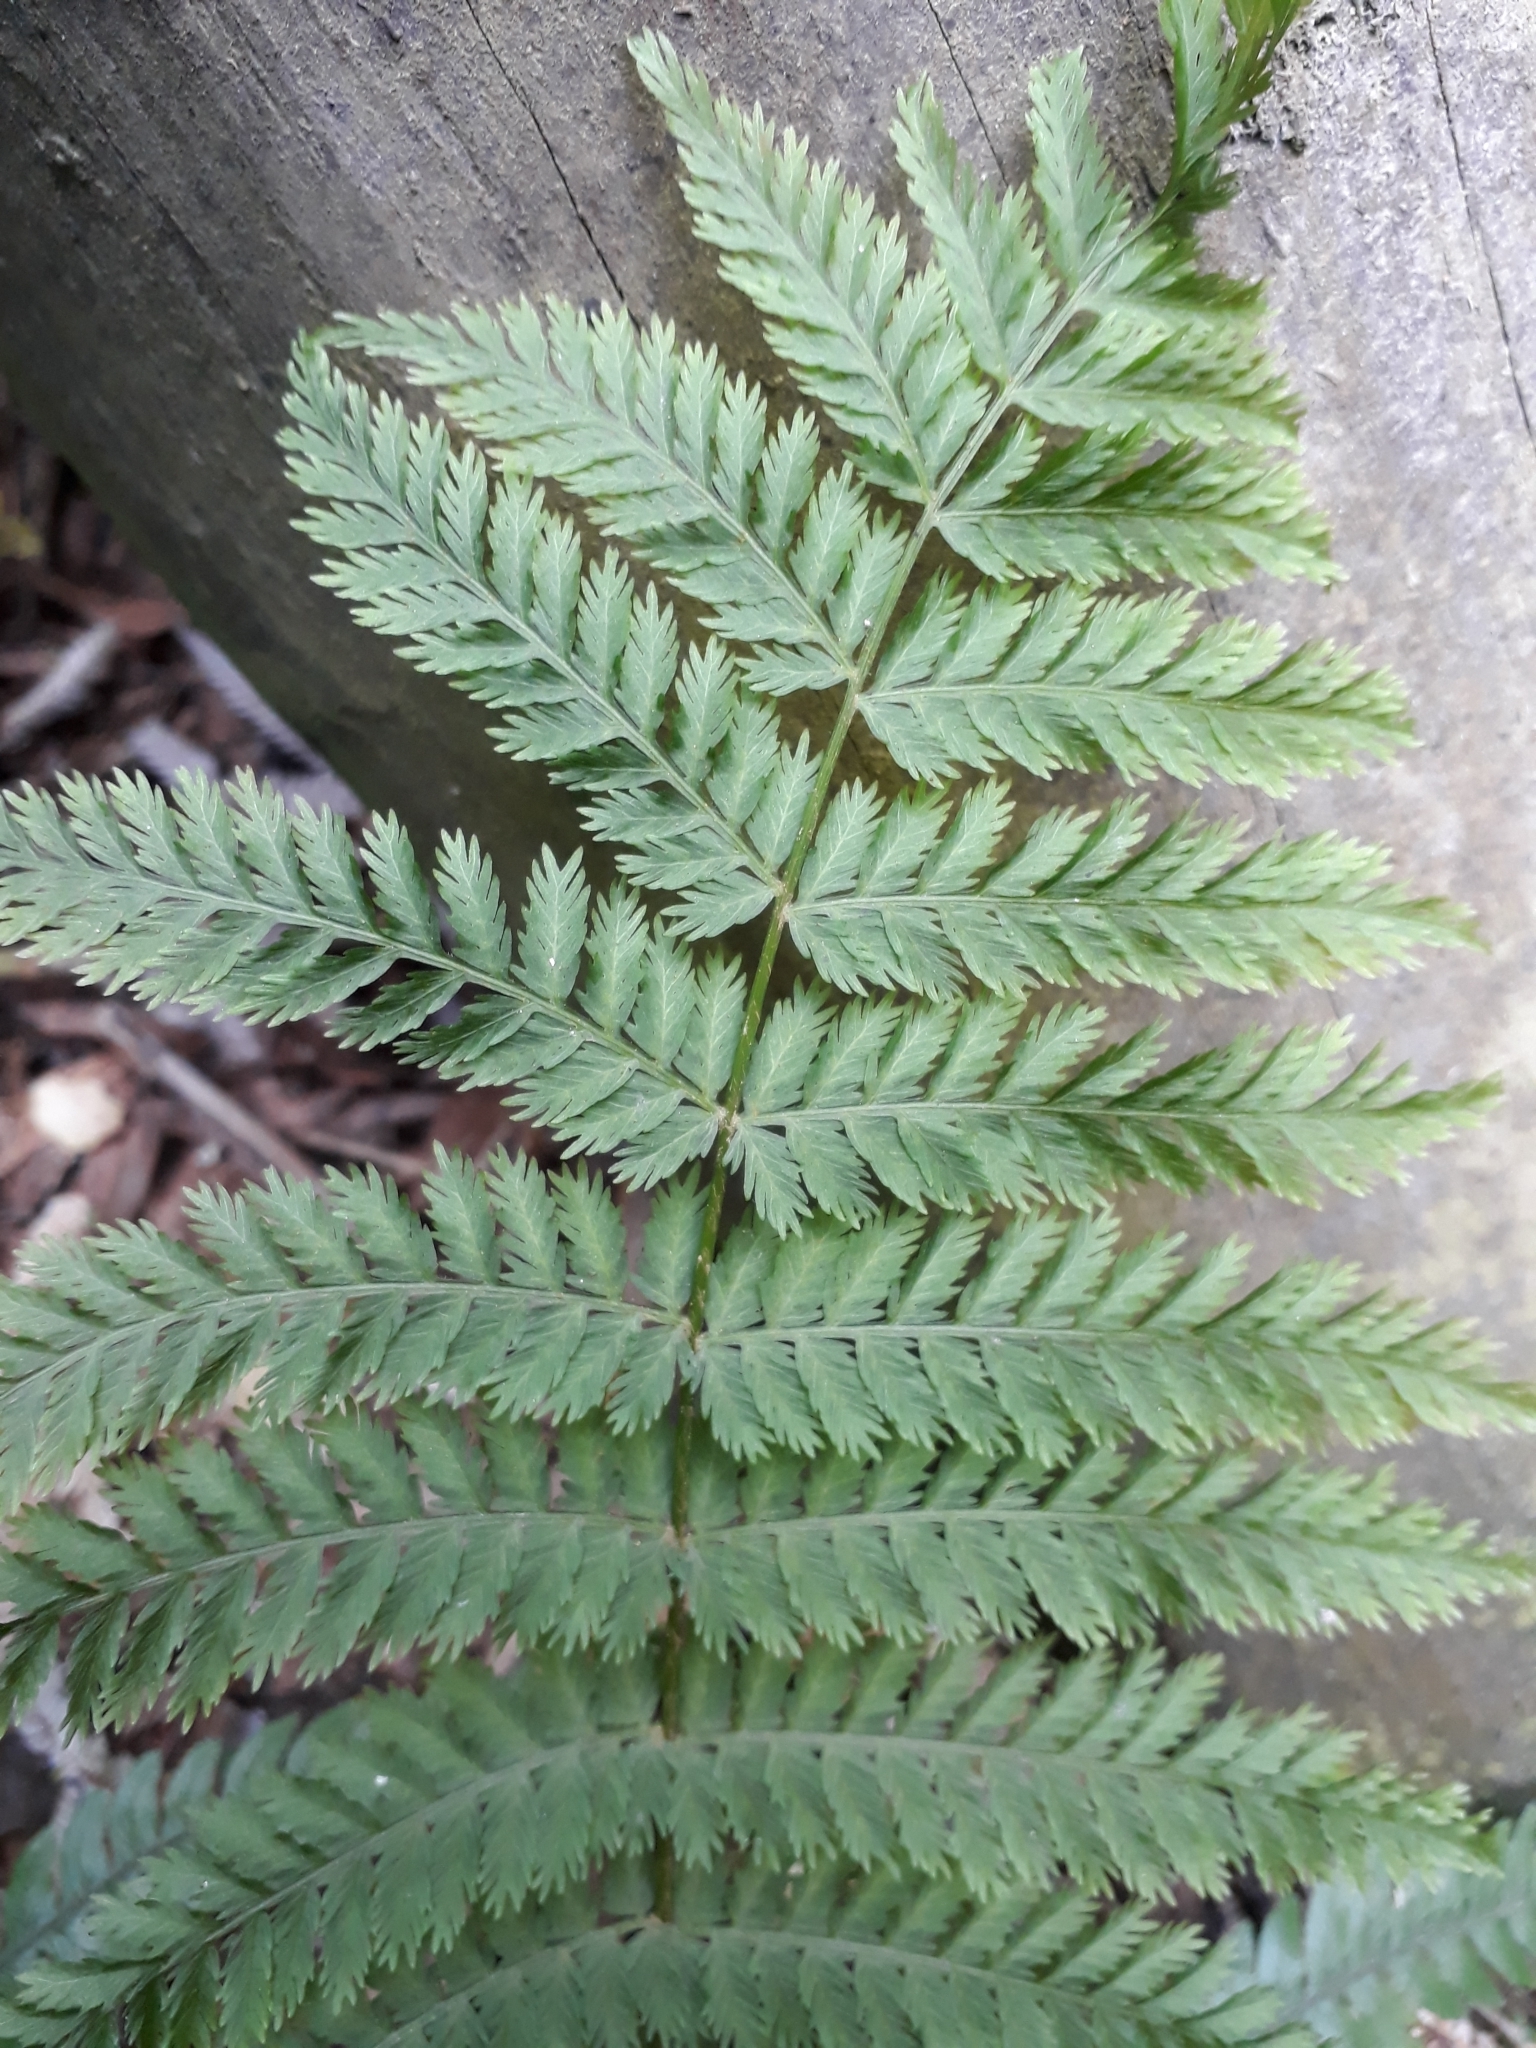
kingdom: Plantae
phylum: Tracheophyta
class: Polypodiopsida
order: Osmundales
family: Osmundaceae
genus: Leptopteris
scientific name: Leptopteris hymenophylloides
